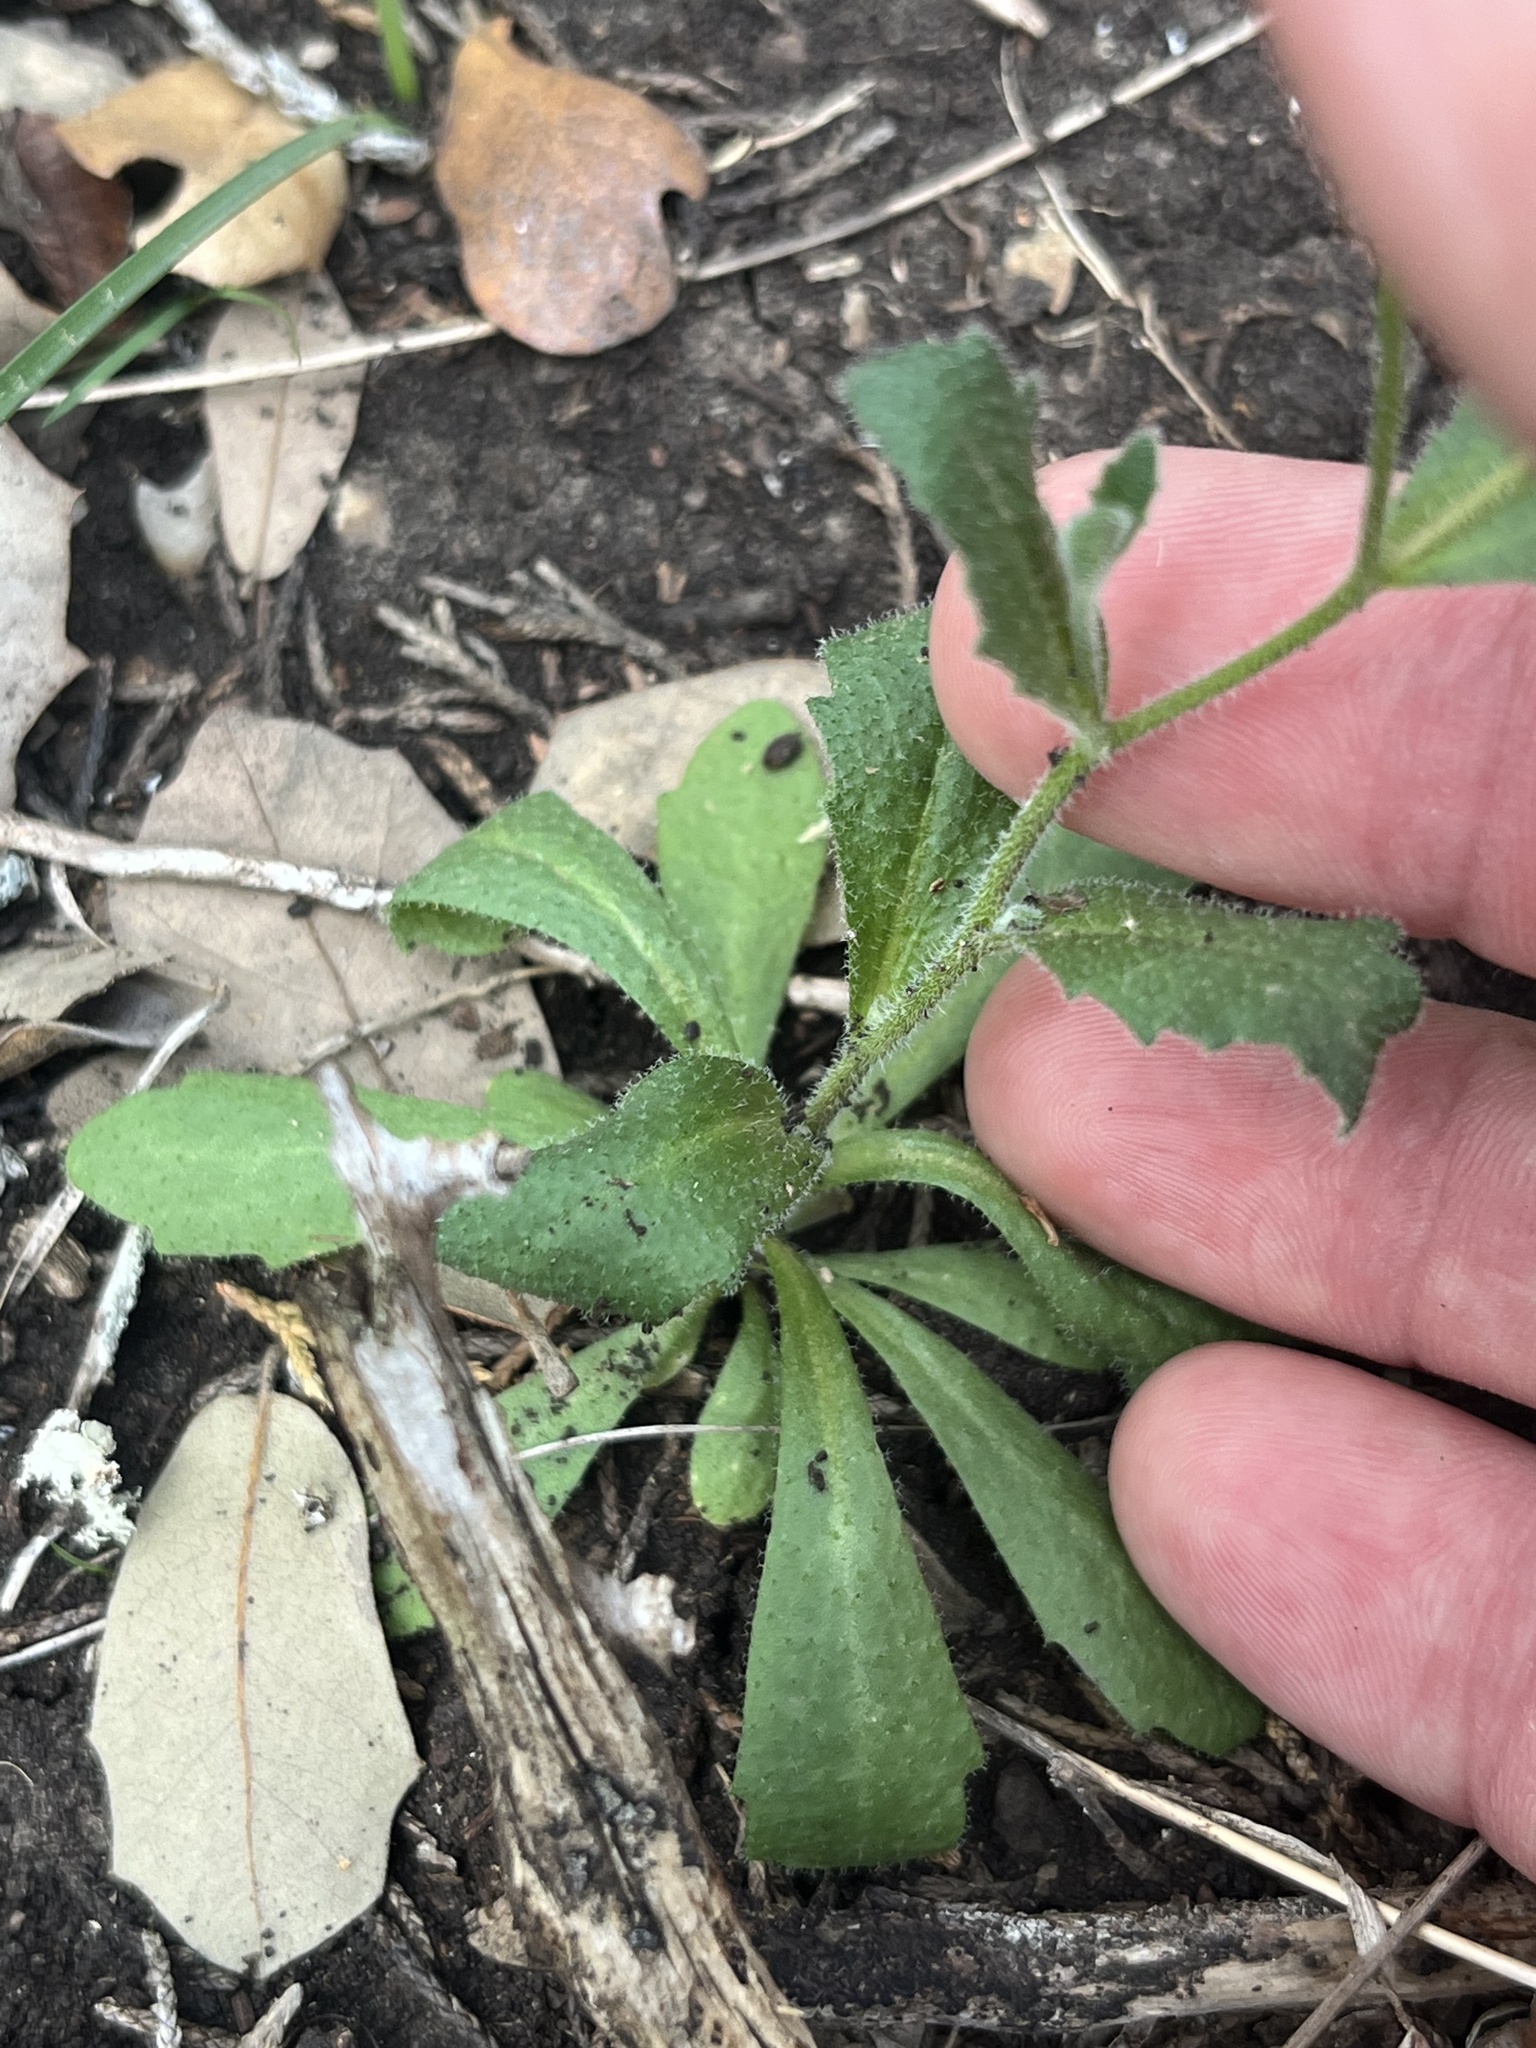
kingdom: Plantae
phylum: Tracheophyta
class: Magnoliopsida
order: Brassicales
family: Brassicaceae
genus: Tomostima
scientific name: Tomostima cuneifolia
